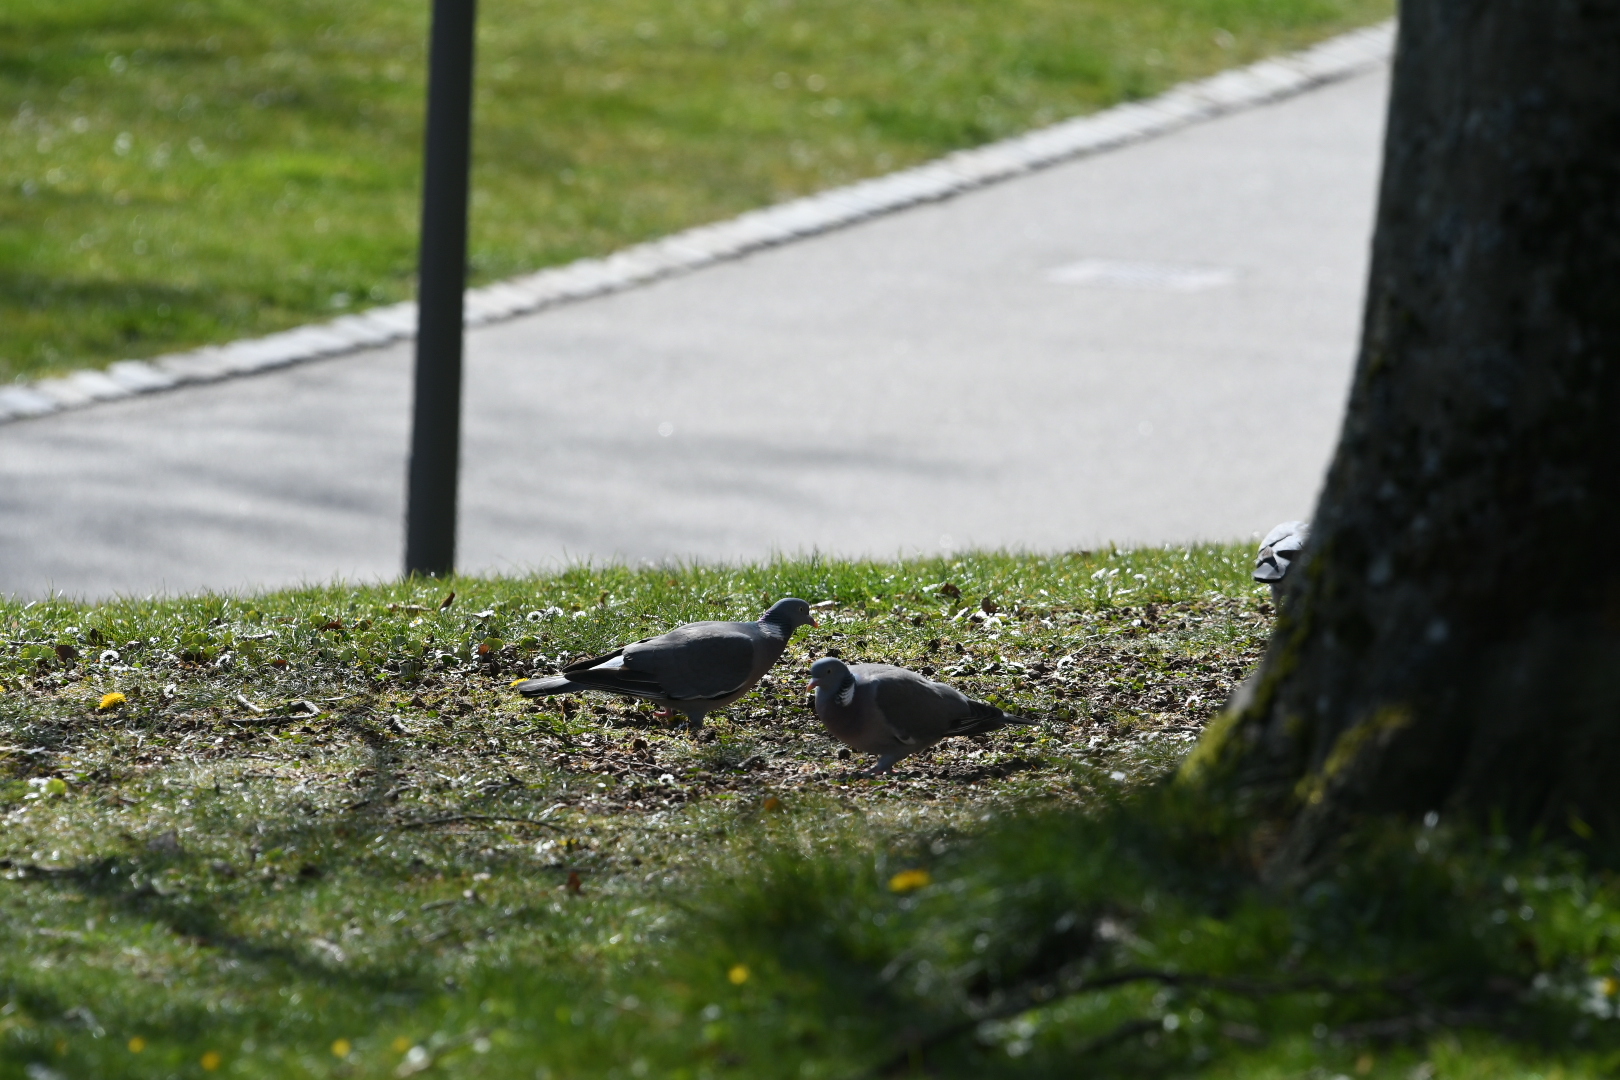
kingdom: Animalia
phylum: Chordata
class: Aves
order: Columbiformes
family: Columbidae
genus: Columba
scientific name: Columba palumbus
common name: Common wood pigeon
